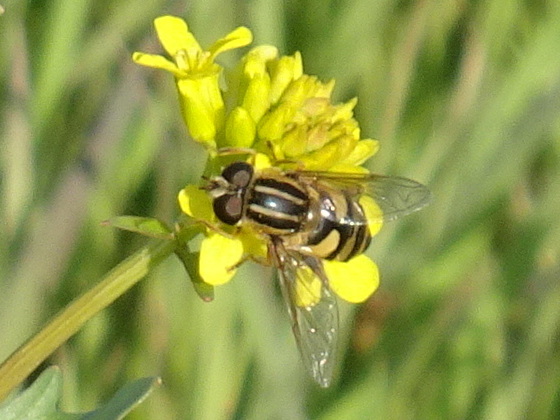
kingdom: Animalia
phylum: Arthropoda
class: Insecta
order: Diptera
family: Syrphidae
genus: Helophilus
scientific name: Helophilus fasciatus
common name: Narrow-headed marsh fly
